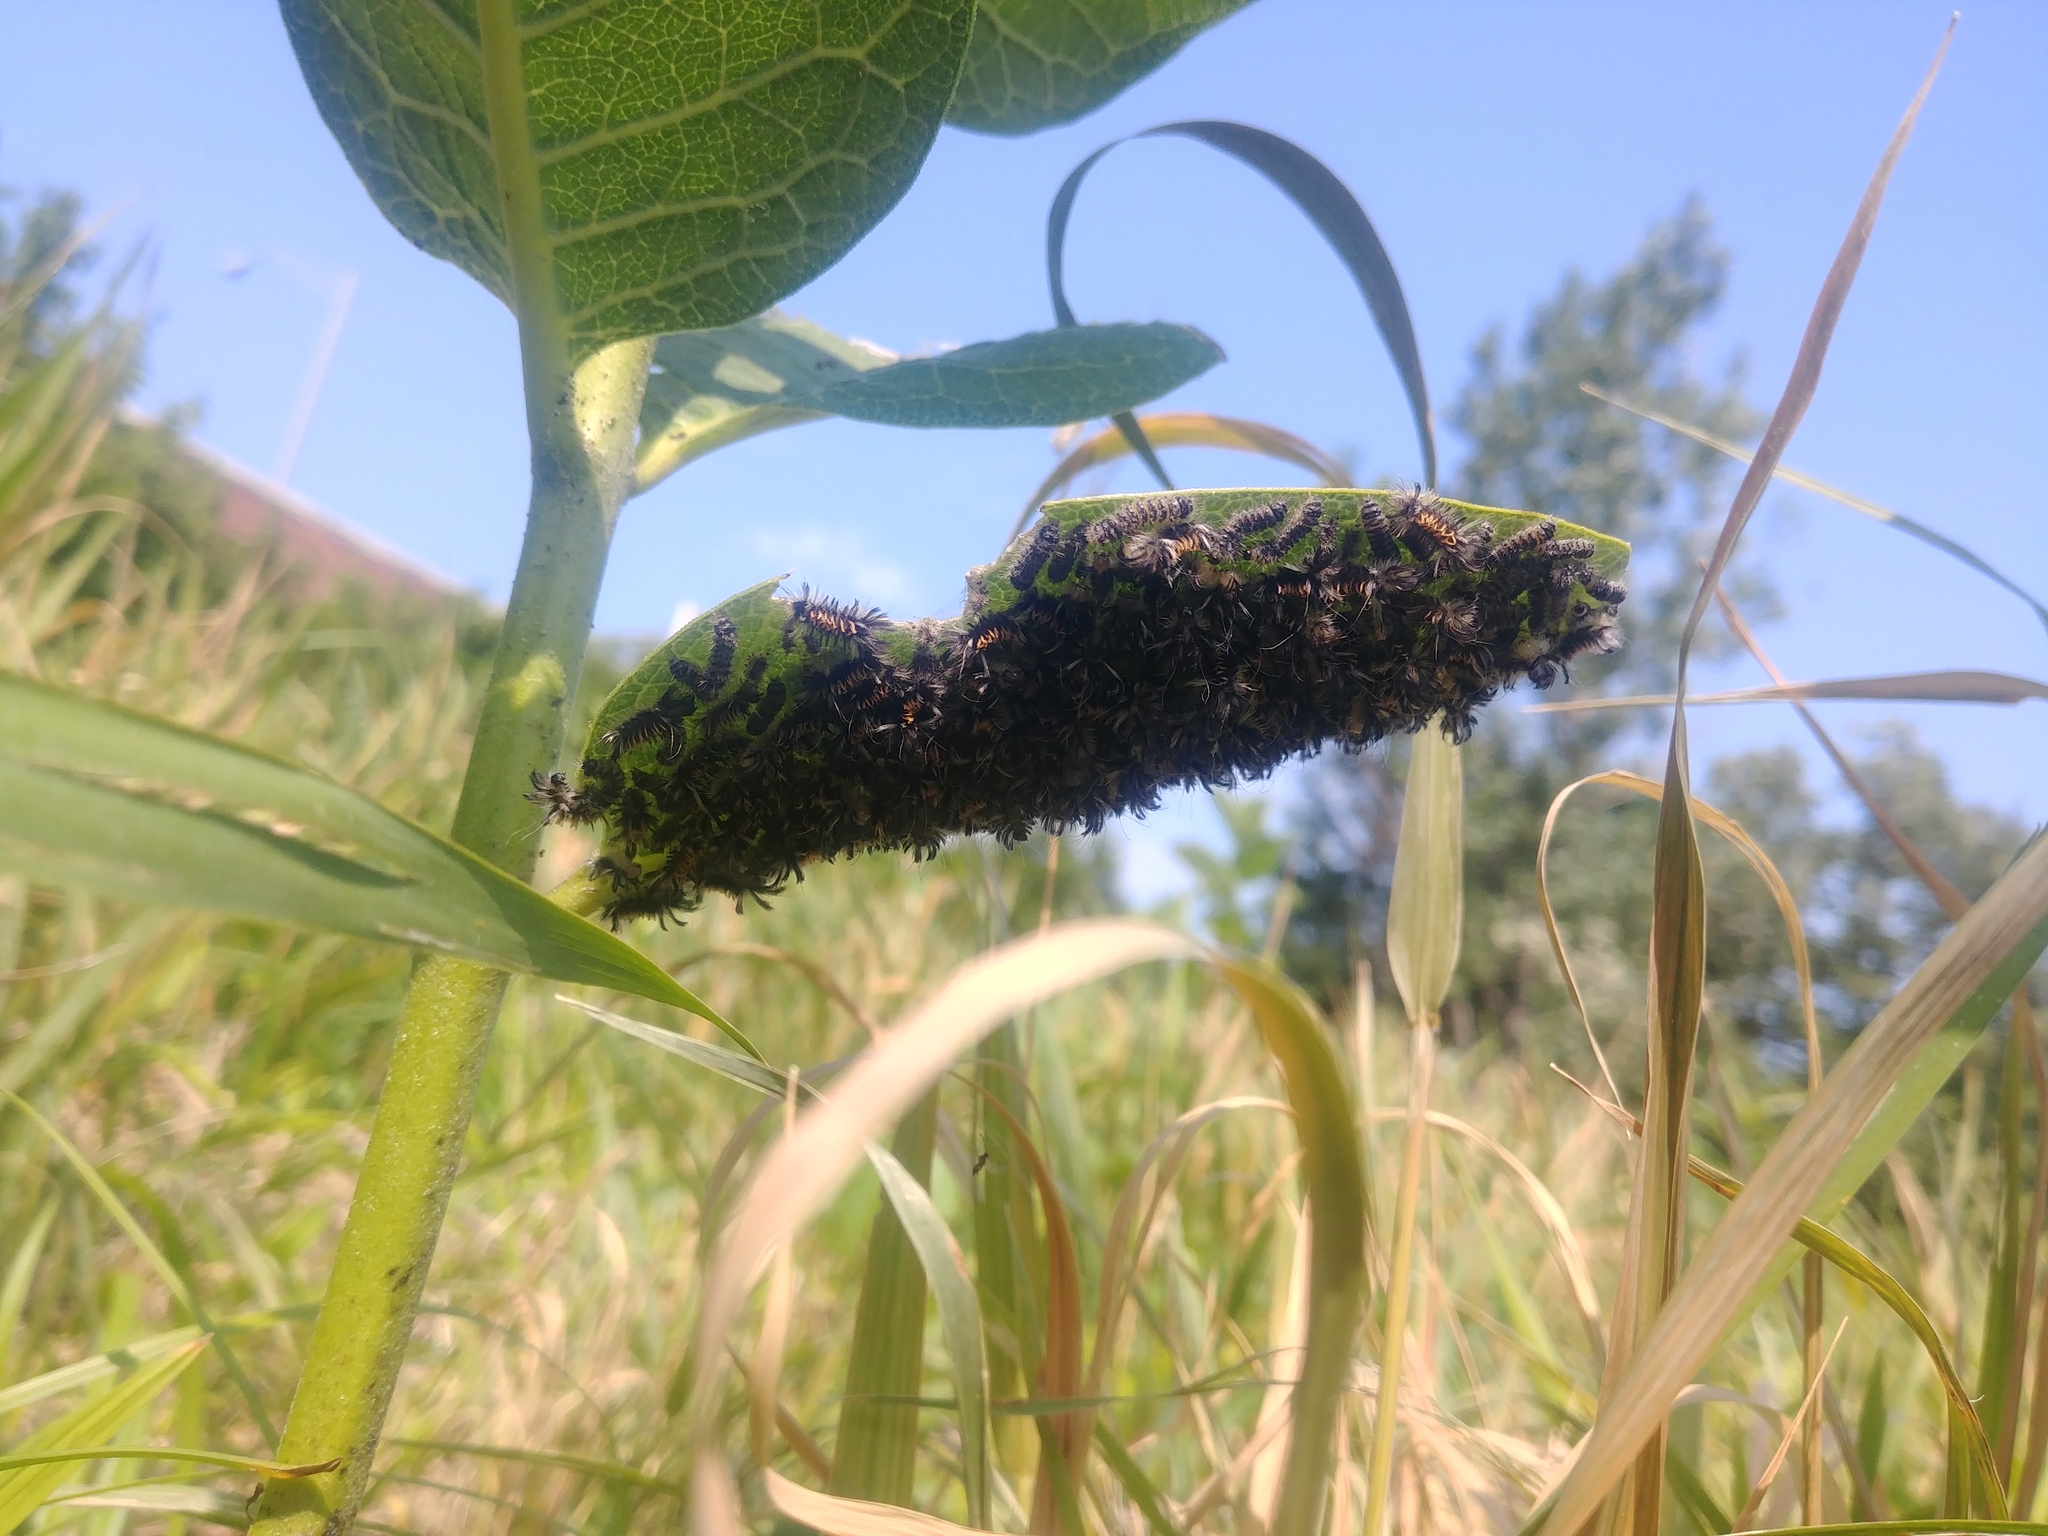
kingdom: Animalia
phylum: Arthropoda
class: Insecta
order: Lepidoptera
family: Erebidae
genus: Euchaetes
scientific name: Euchaetes egle
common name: Milkweed tussock moth
